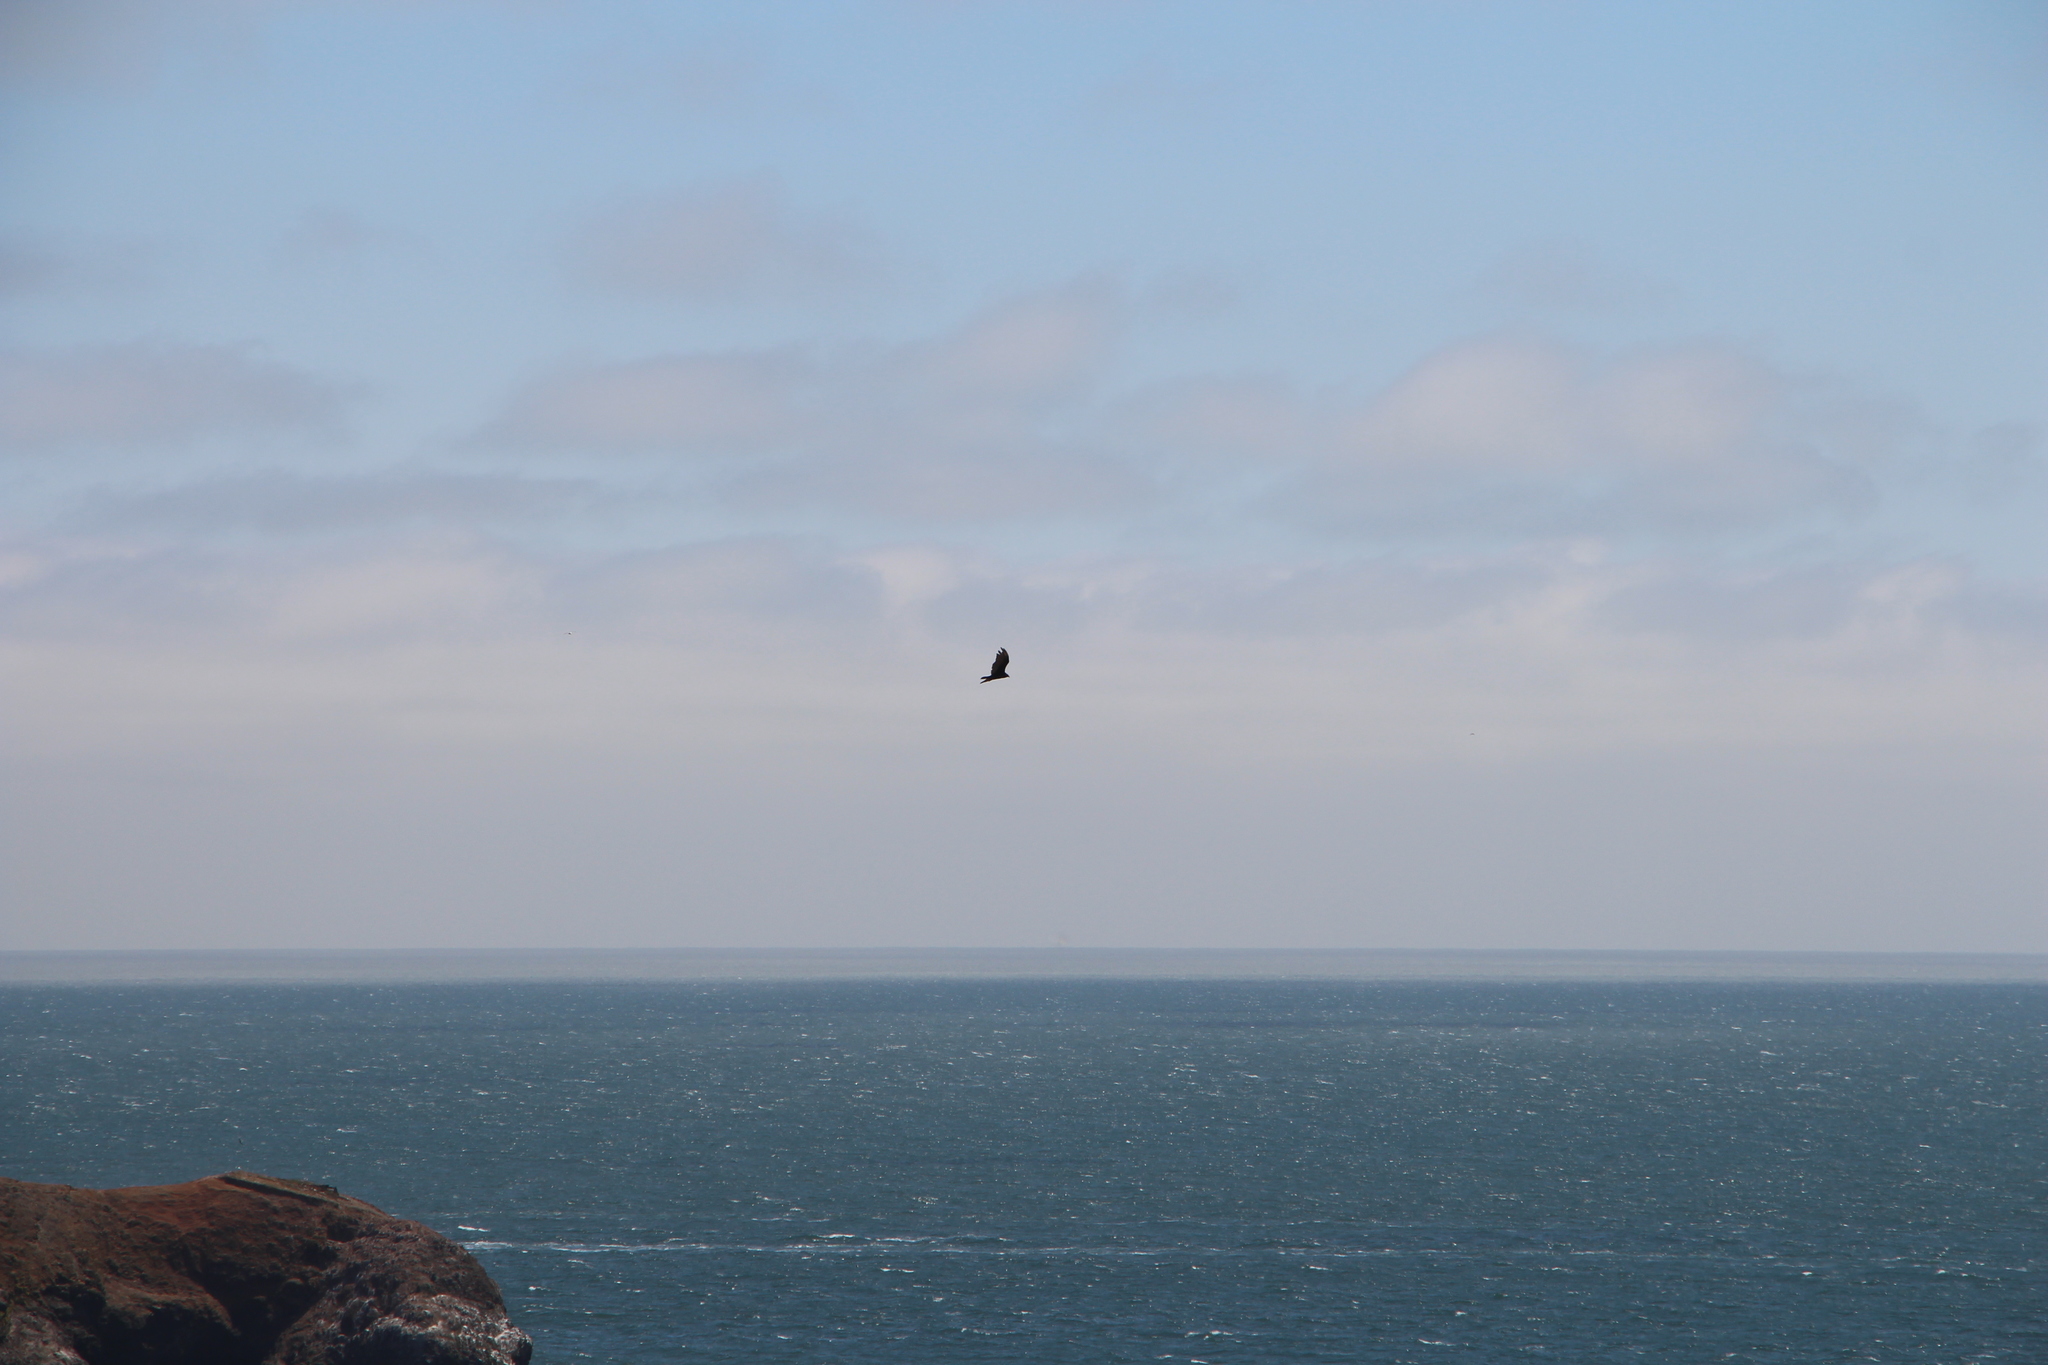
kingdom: Animalia
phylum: Chordata
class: Aves
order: Accipitriformes
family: Cathartidae
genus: Cathartes
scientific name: Cathartes aura
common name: Turkey vulture
